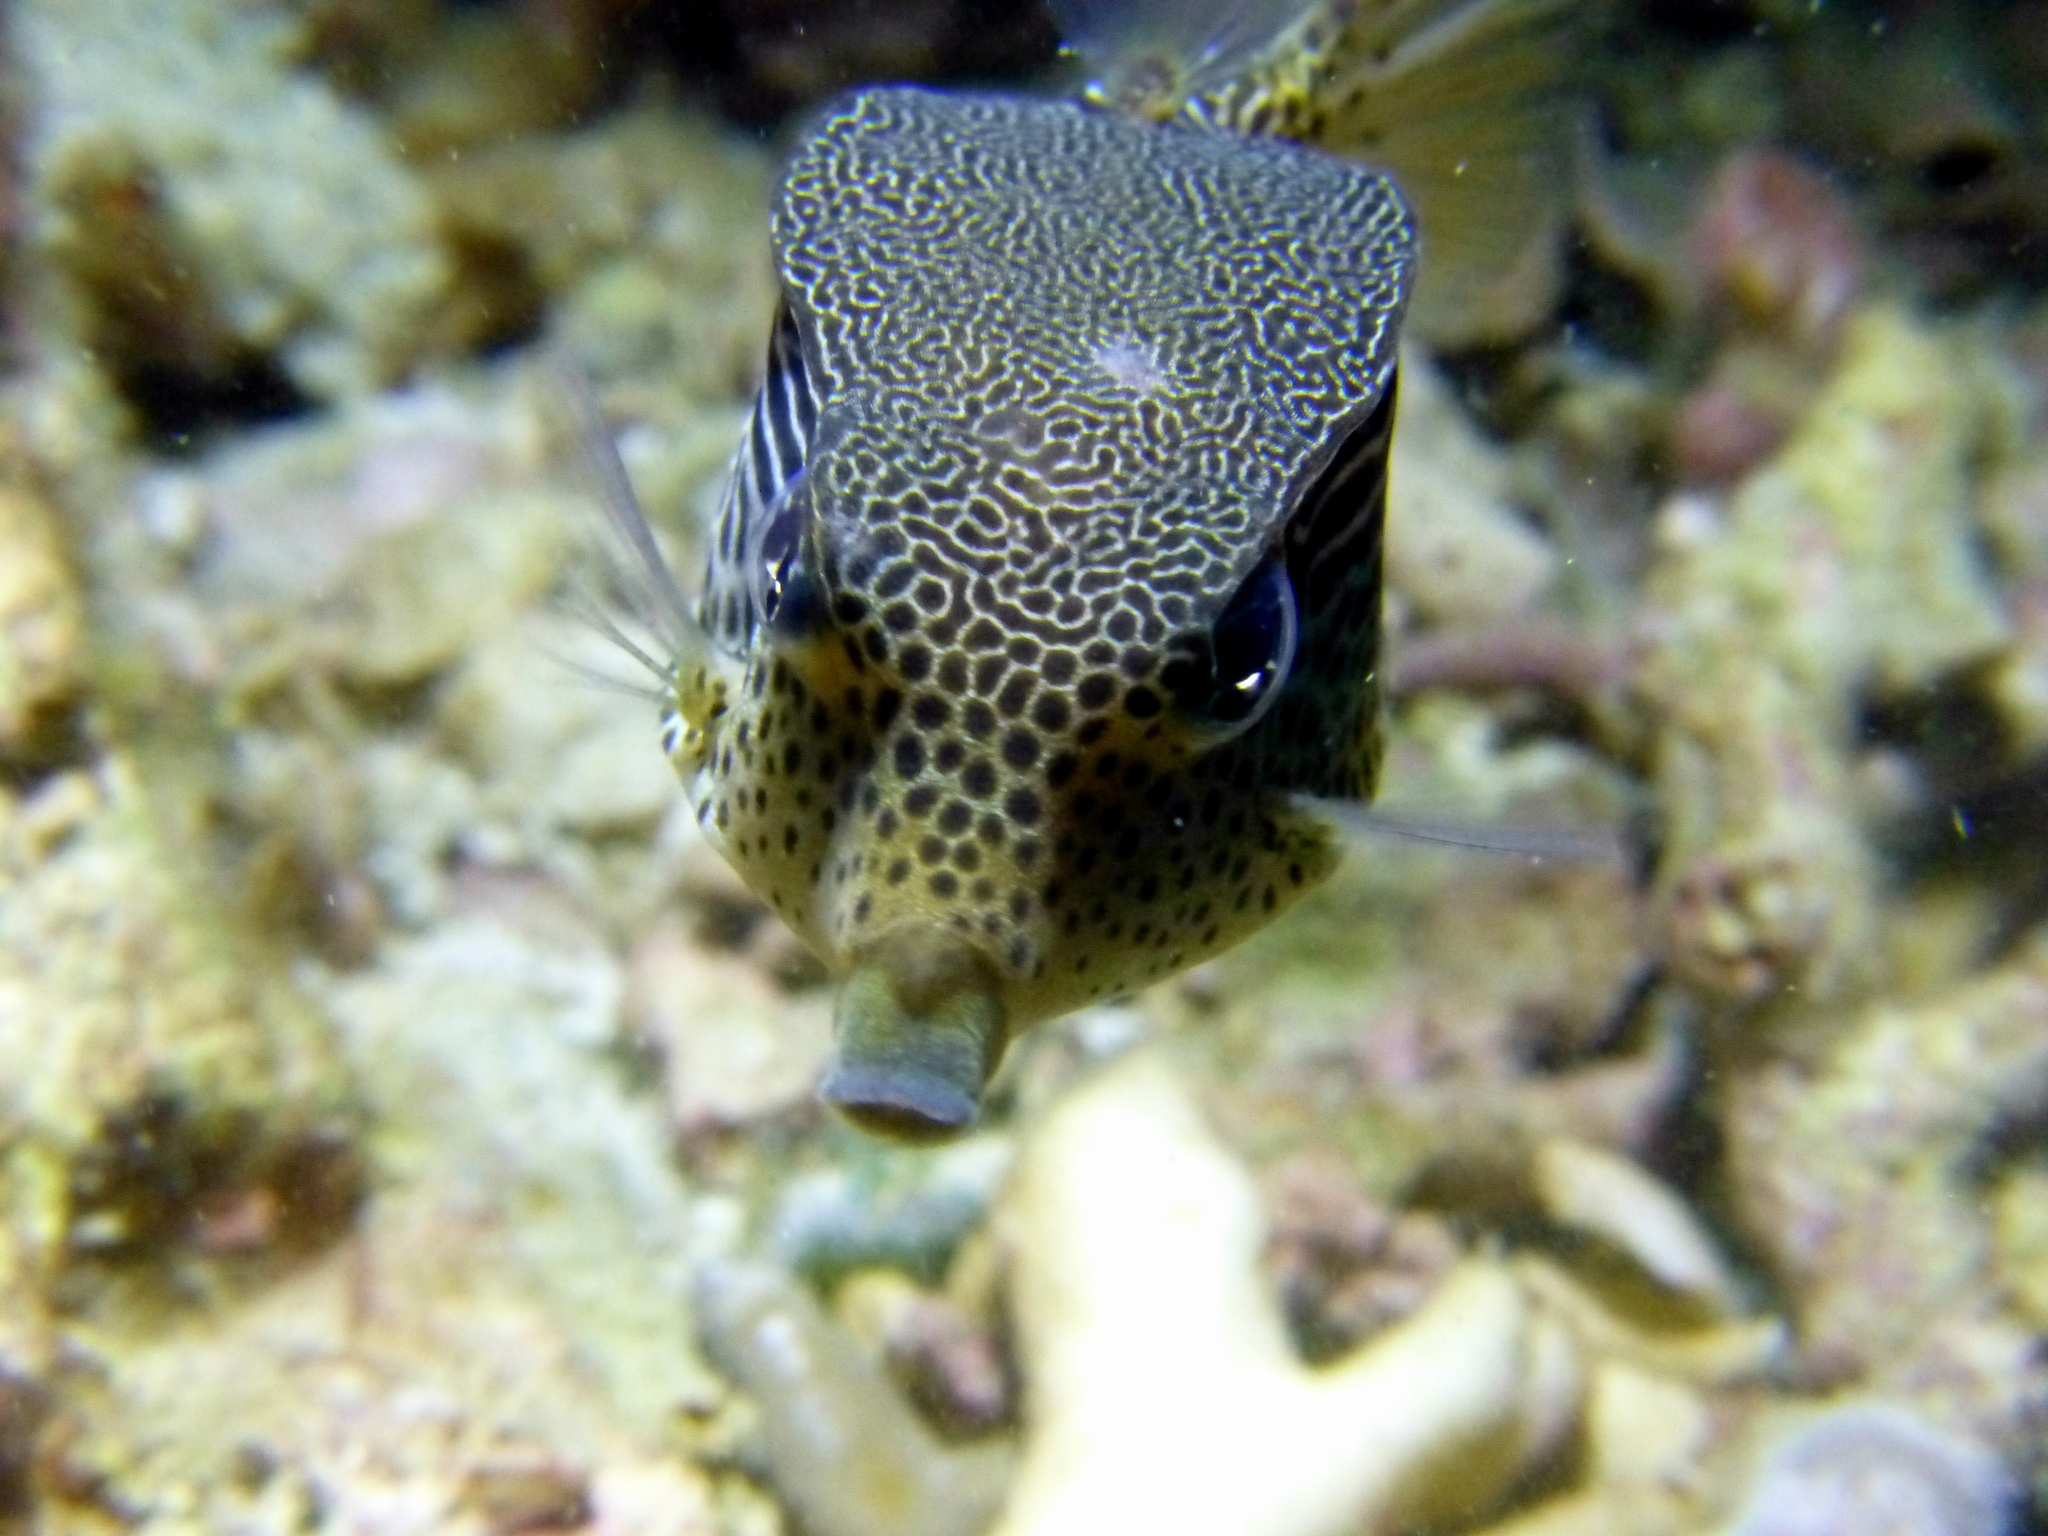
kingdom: Animalia
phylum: Chordata
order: Tetraodontiformes
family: Ostraciidae
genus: Ostracion
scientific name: Ostracion solorense
